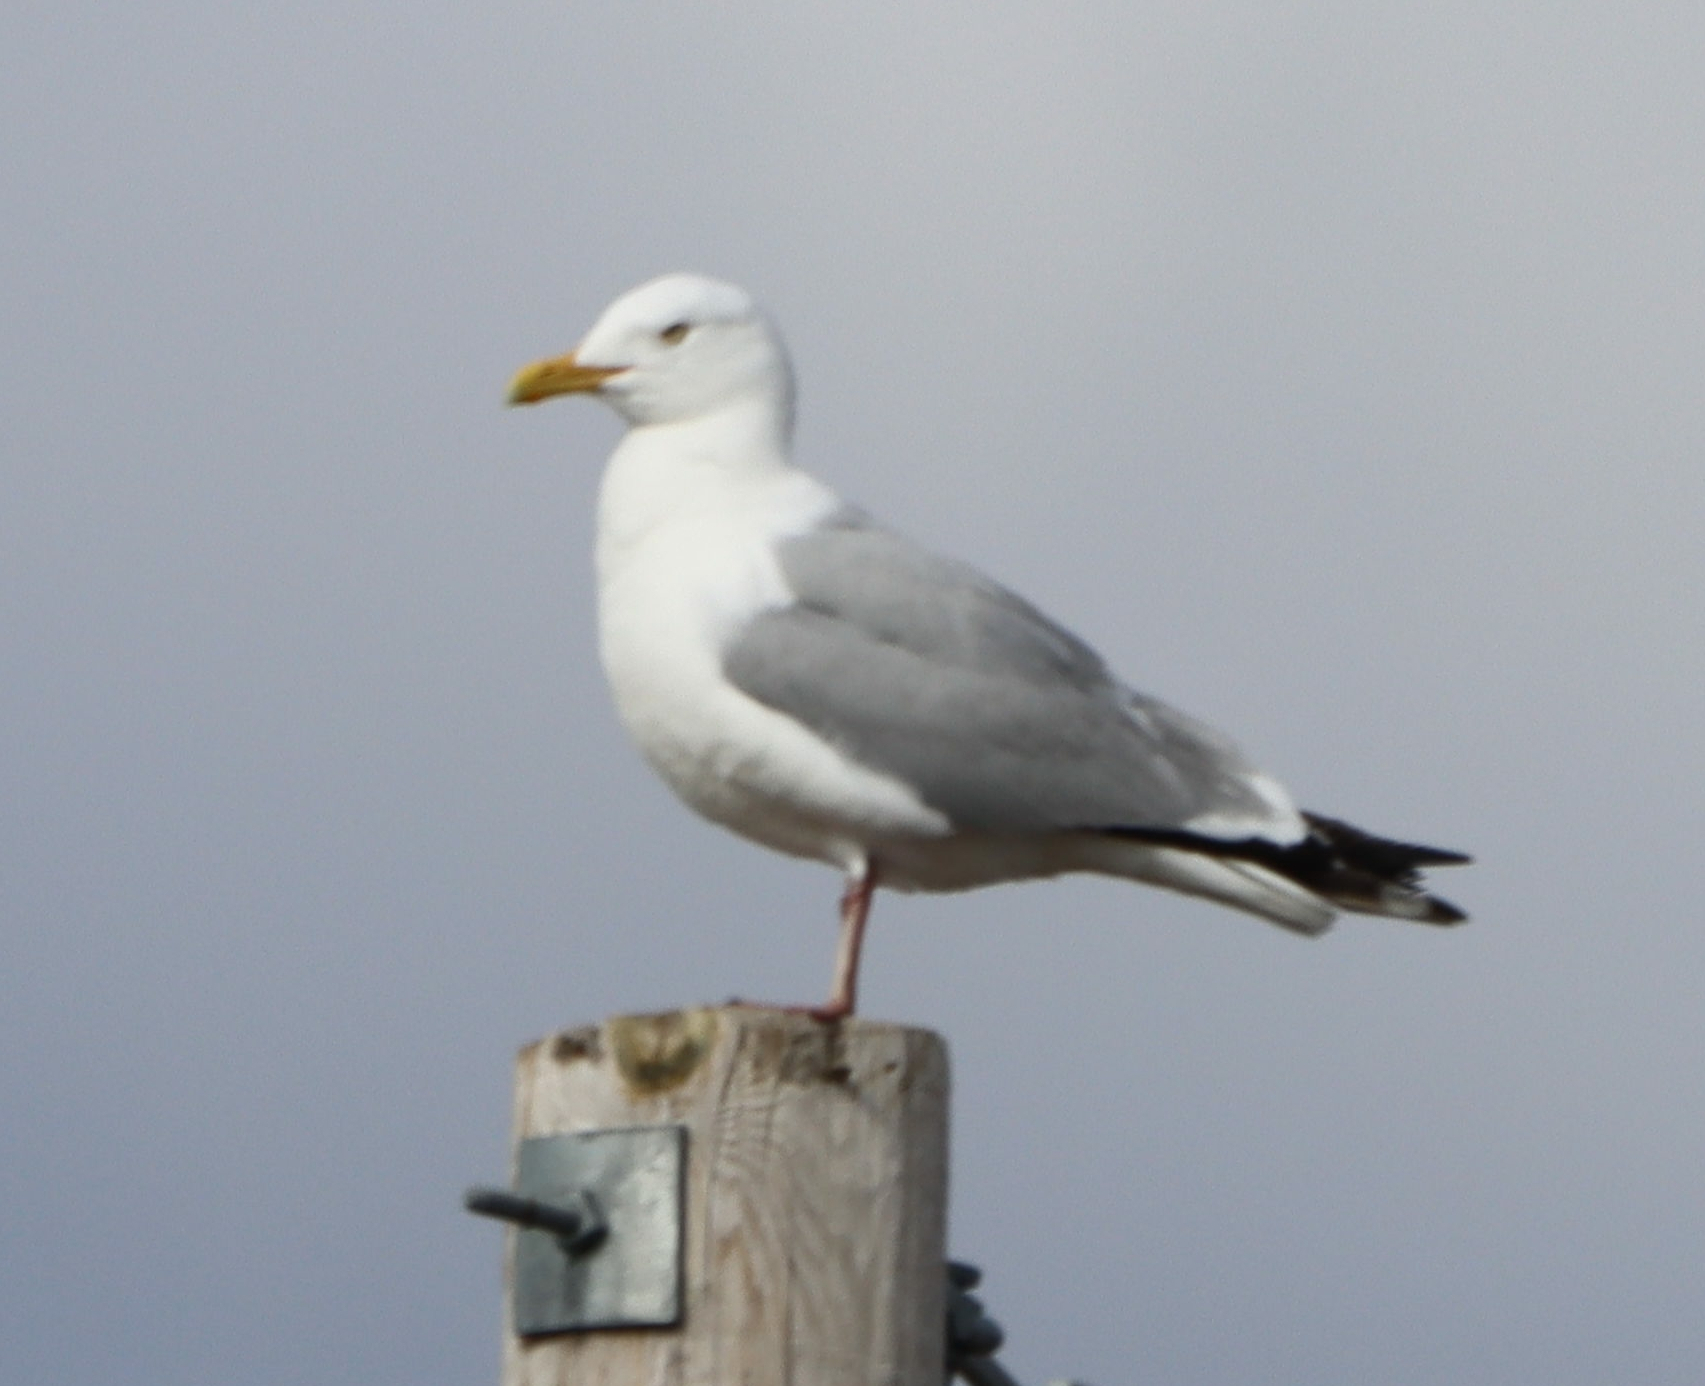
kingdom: Animalia
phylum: Chordata
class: Aves
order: Charadriiformes
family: Laridae
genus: Larus
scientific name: Larus argentatus
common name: Herring gull
